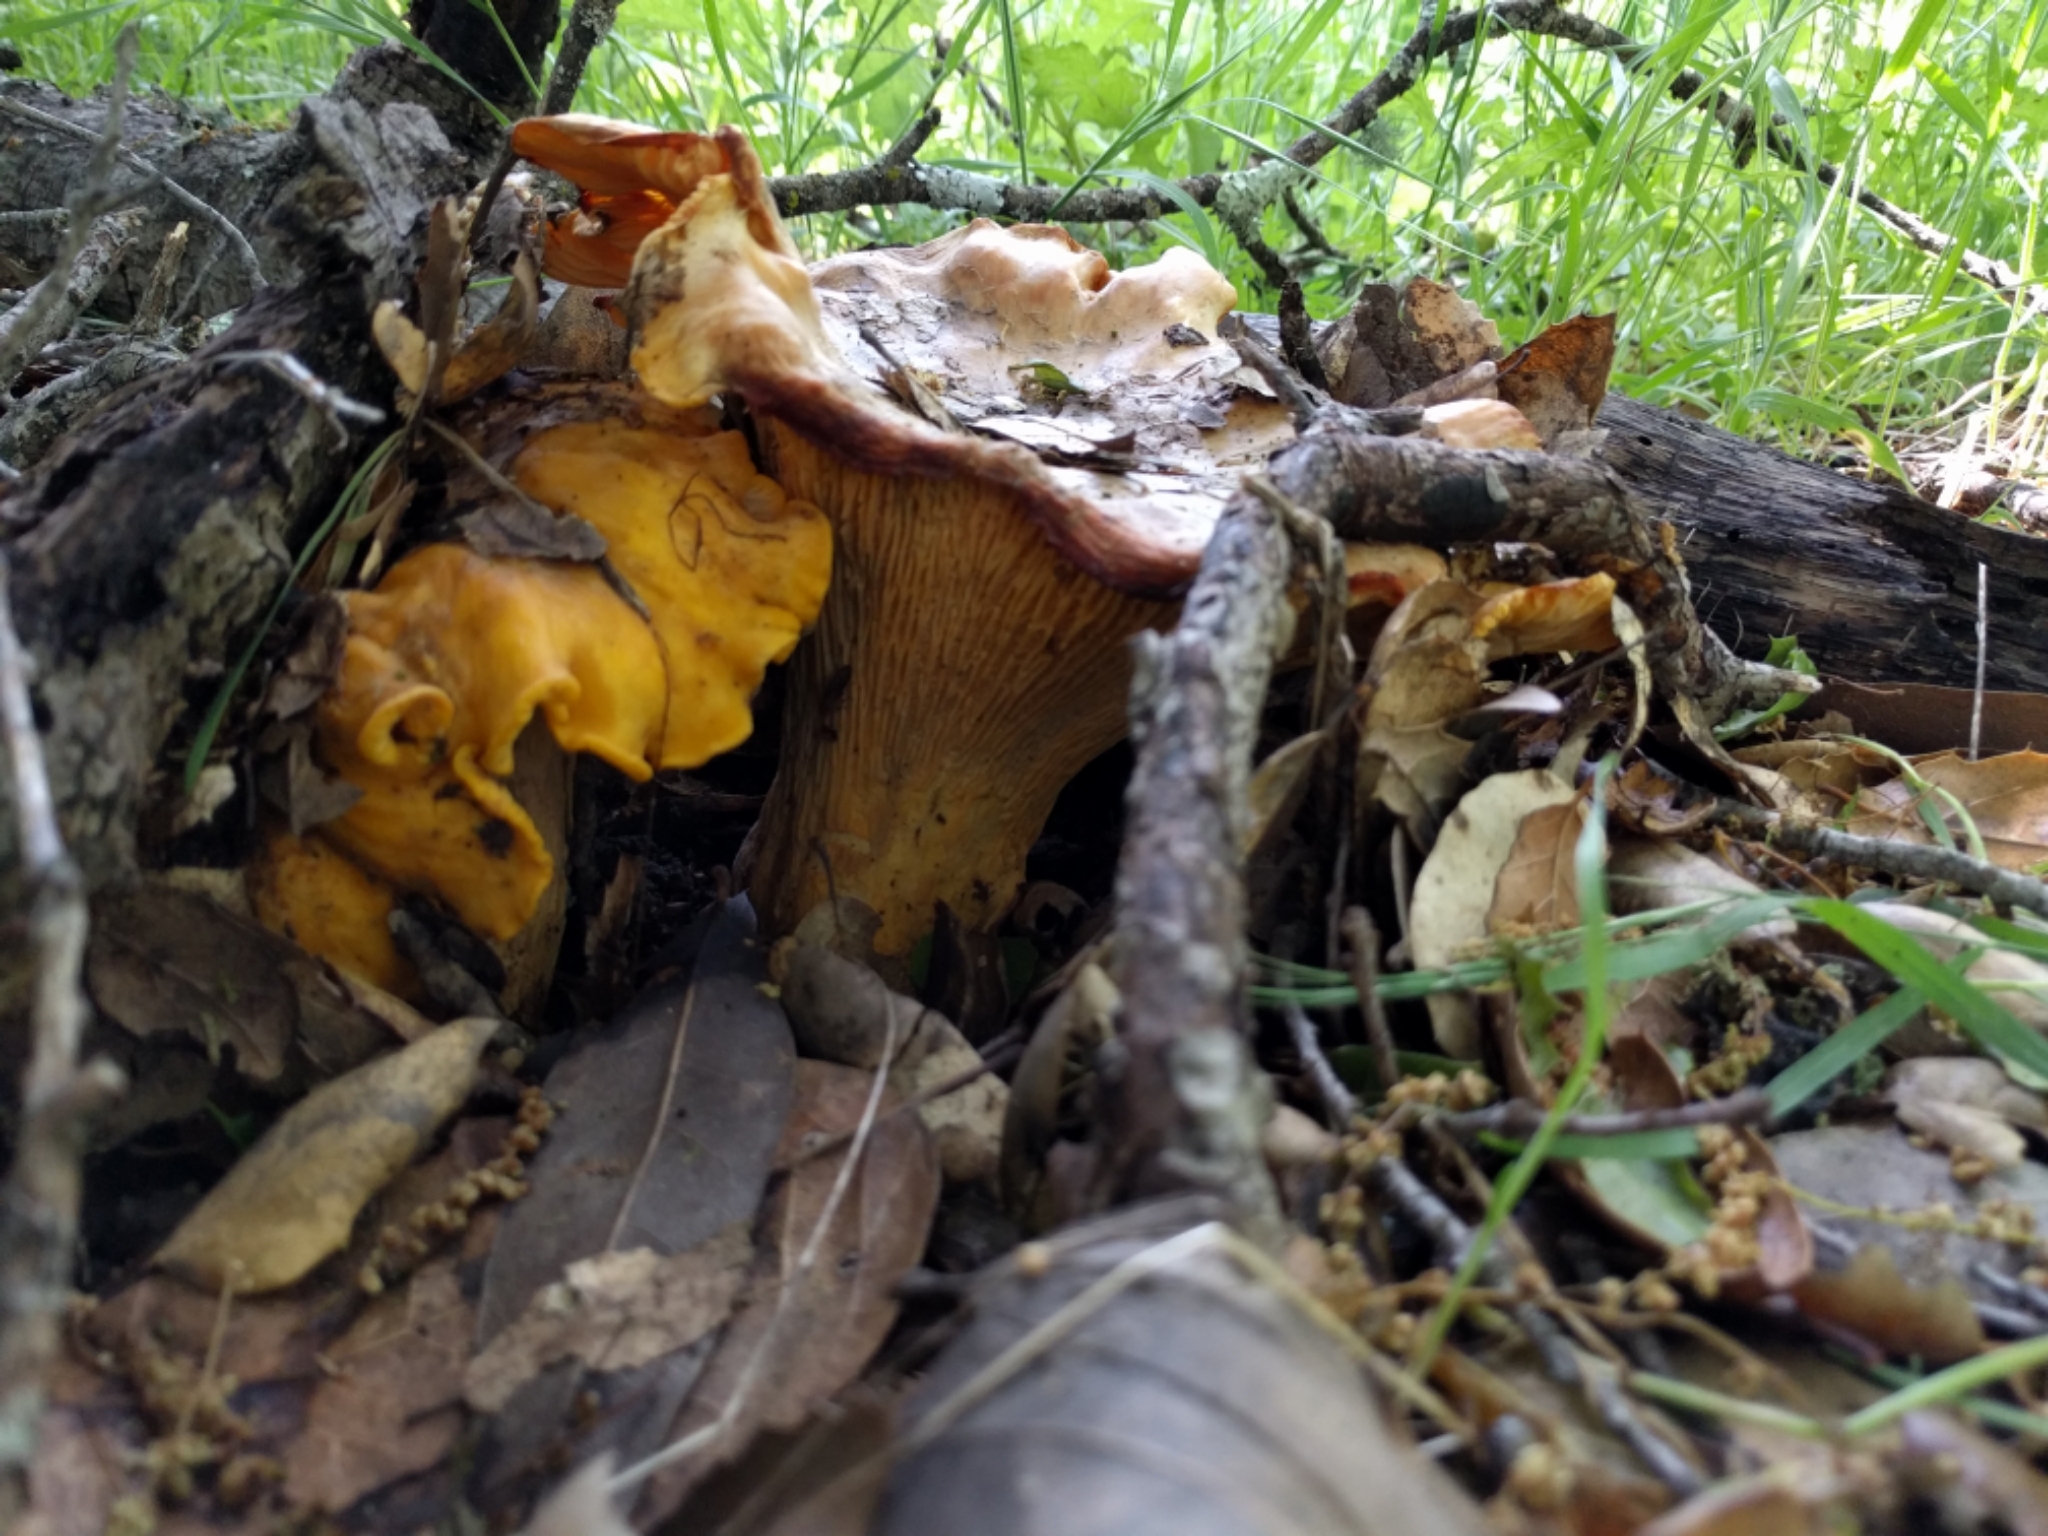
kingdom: Fungi
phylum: Basidiomycota
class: Agaricomycetes
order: Cantharellales
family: Hydnaceae
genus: Cantharellus
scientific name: Cantharellus californicus
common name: California golden chanterelle
